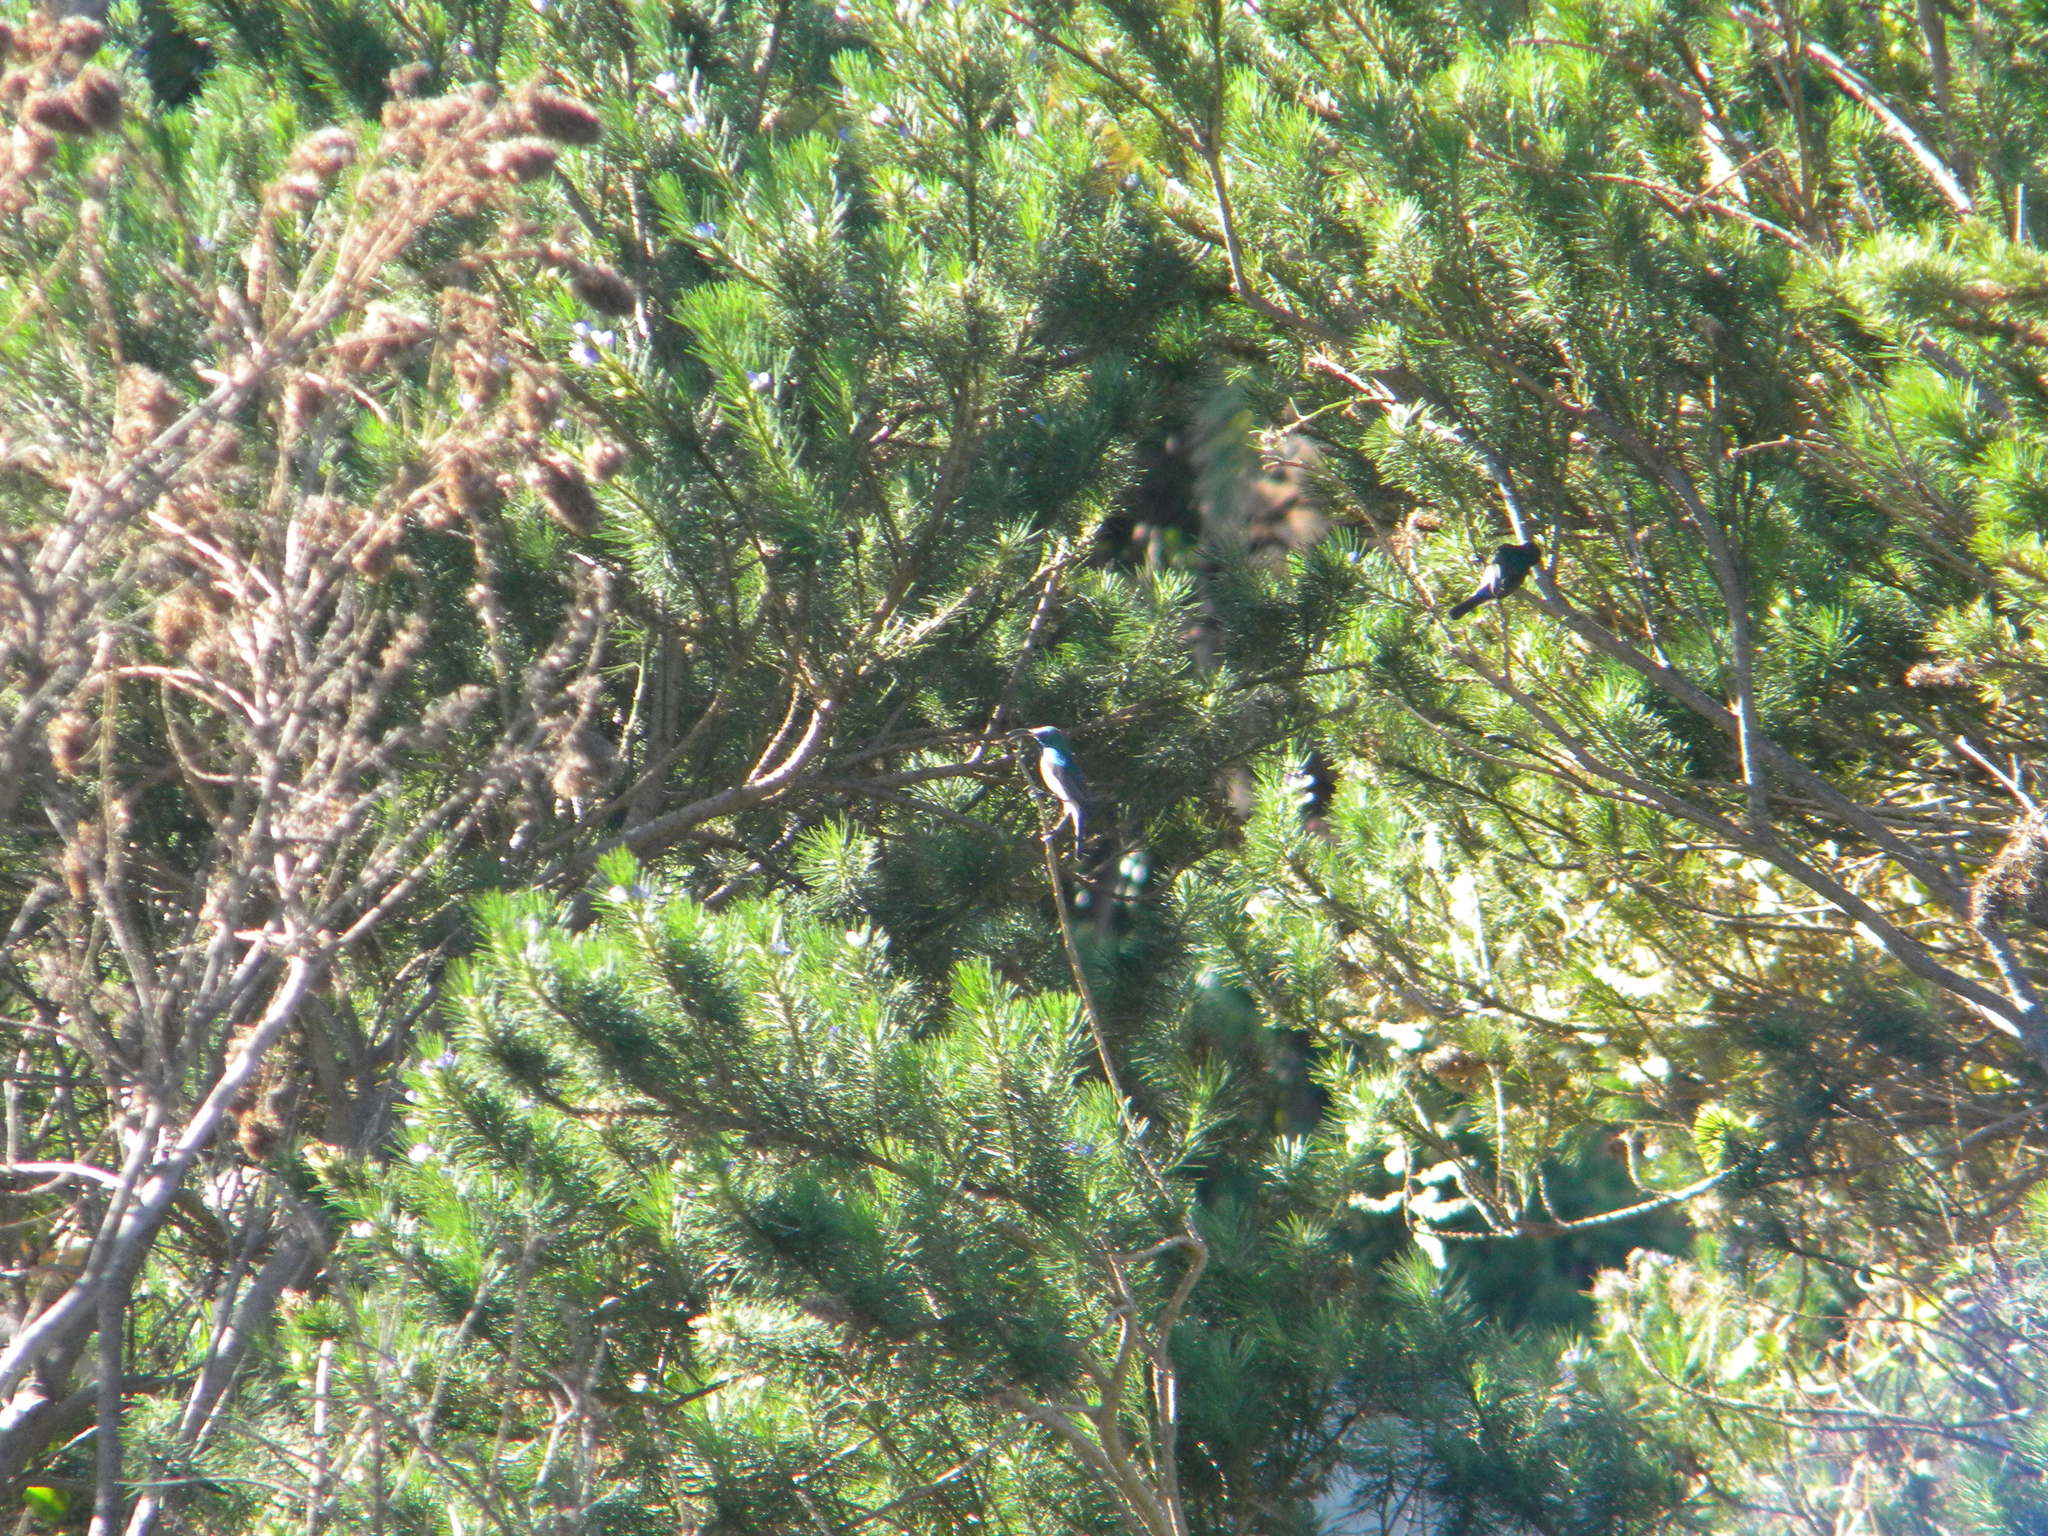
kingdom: Animalia
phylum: Chordata
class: Aves
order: Passeriformes
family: Nectariniidae
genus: Cinnyris
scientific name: Cinnyris chalybeus
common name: Southern double-collared sunbird
